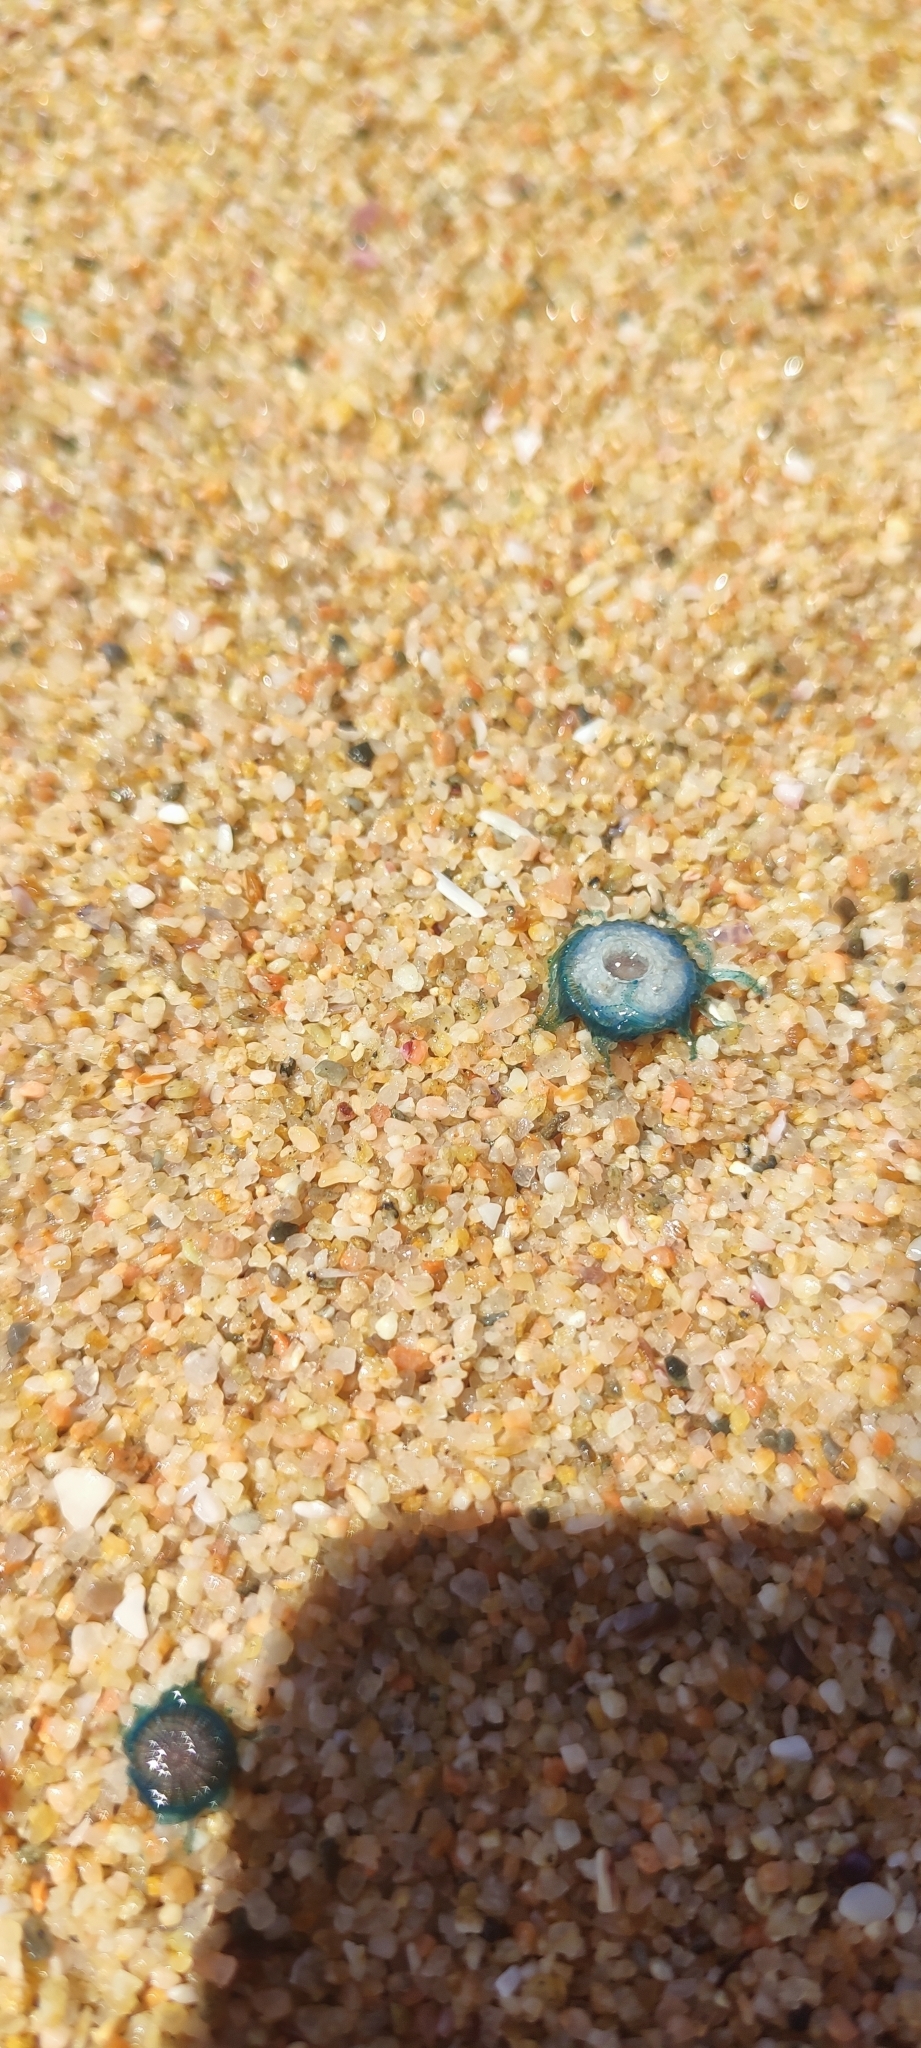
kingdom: Animalia
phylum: Cnidaria
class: Hydrozoa
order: Anthoathecata
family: Porpitidae
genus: Porpita
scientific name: Porpita porpita
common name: Blue button
